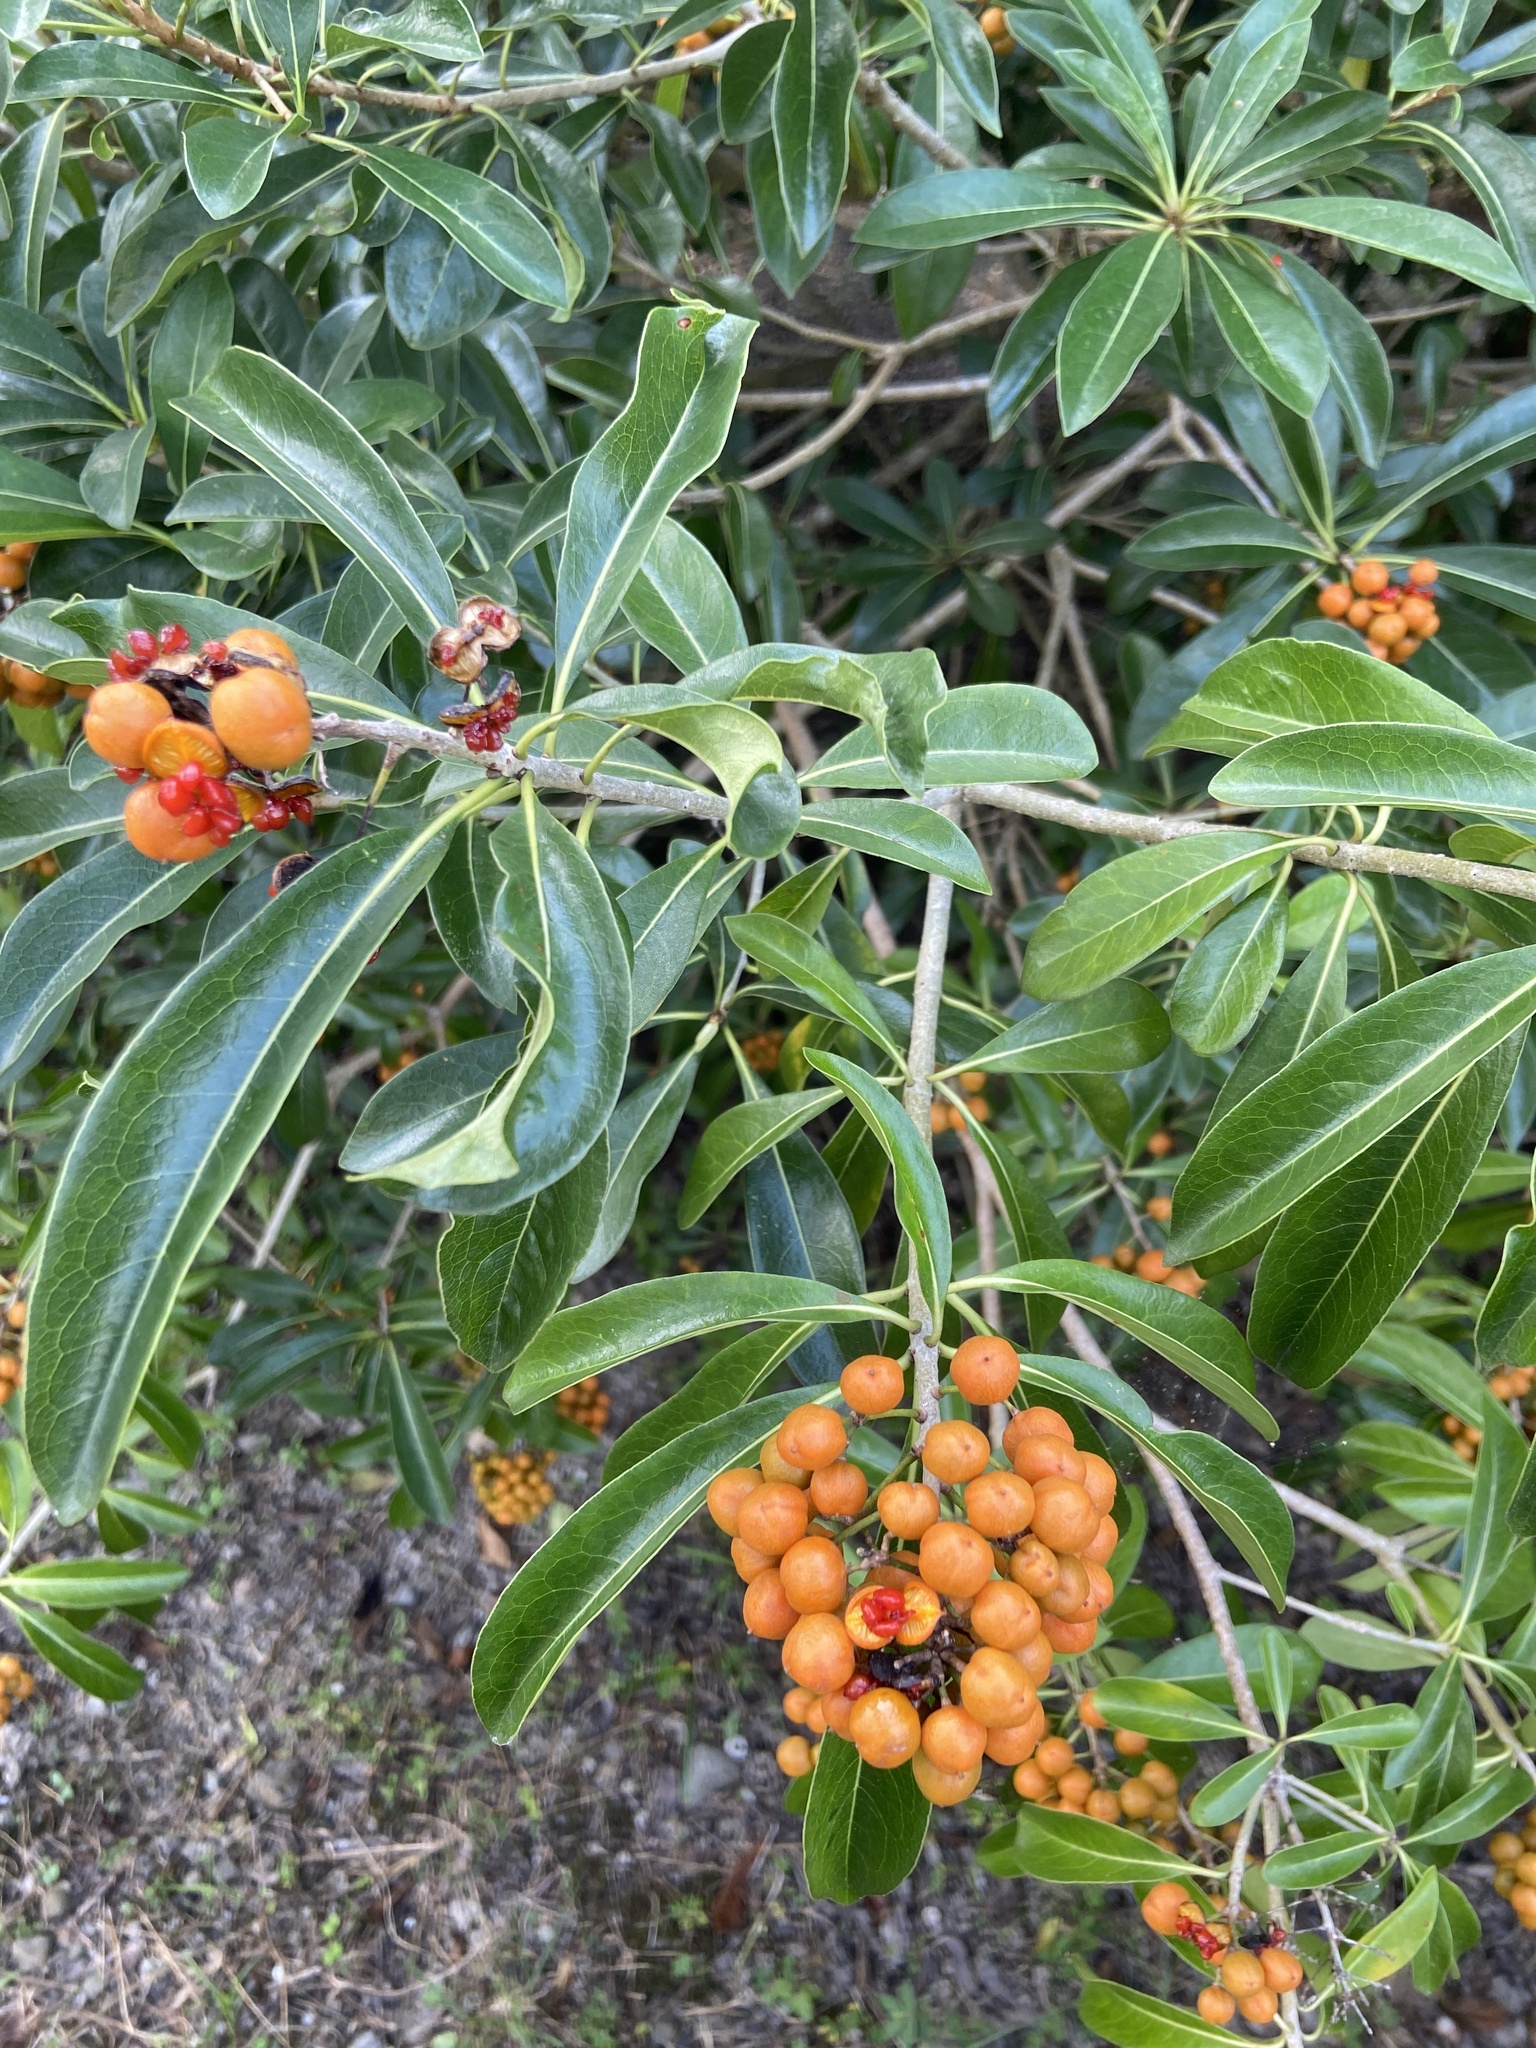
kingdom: Plantae
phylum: Tracheophyta
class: Magnoliopsida
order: Apiales
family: Pittosporaceae
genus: Pittosporum
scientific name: Pittosporum pentandrum
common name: Taiwanese cheesewood
